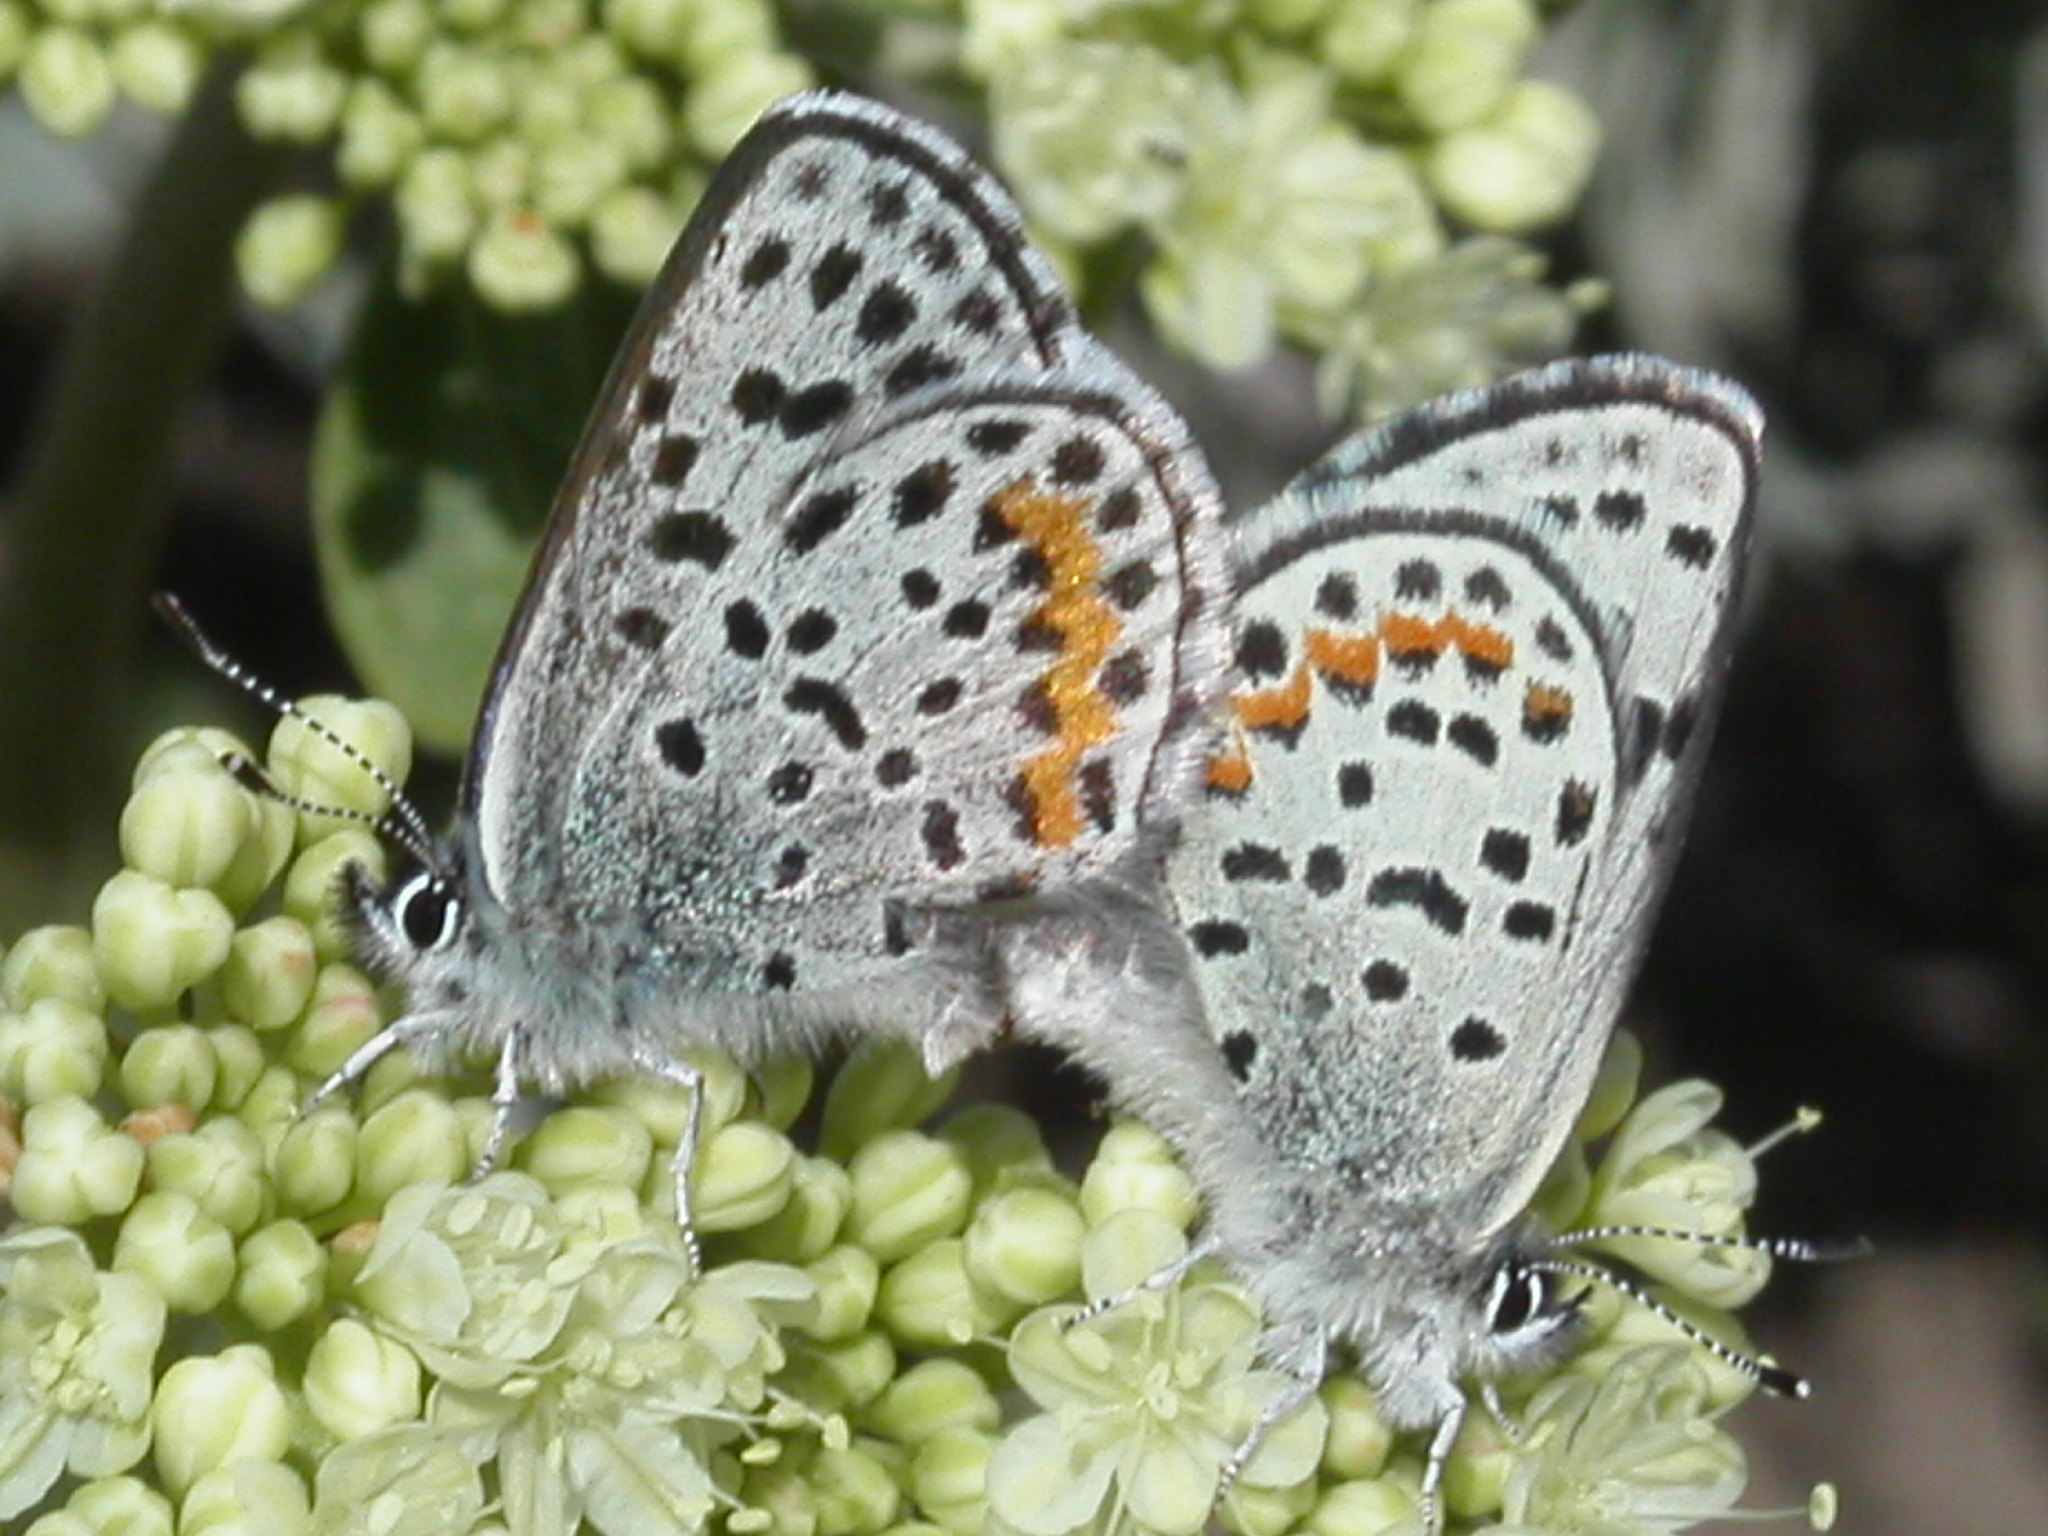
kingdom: Animalia
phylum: Arthropoda
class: Insecta
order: Lepidoptera
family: Lycaenidae
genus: Euphilotes
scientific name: Euphilotes enoptes
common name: Dotted blue
